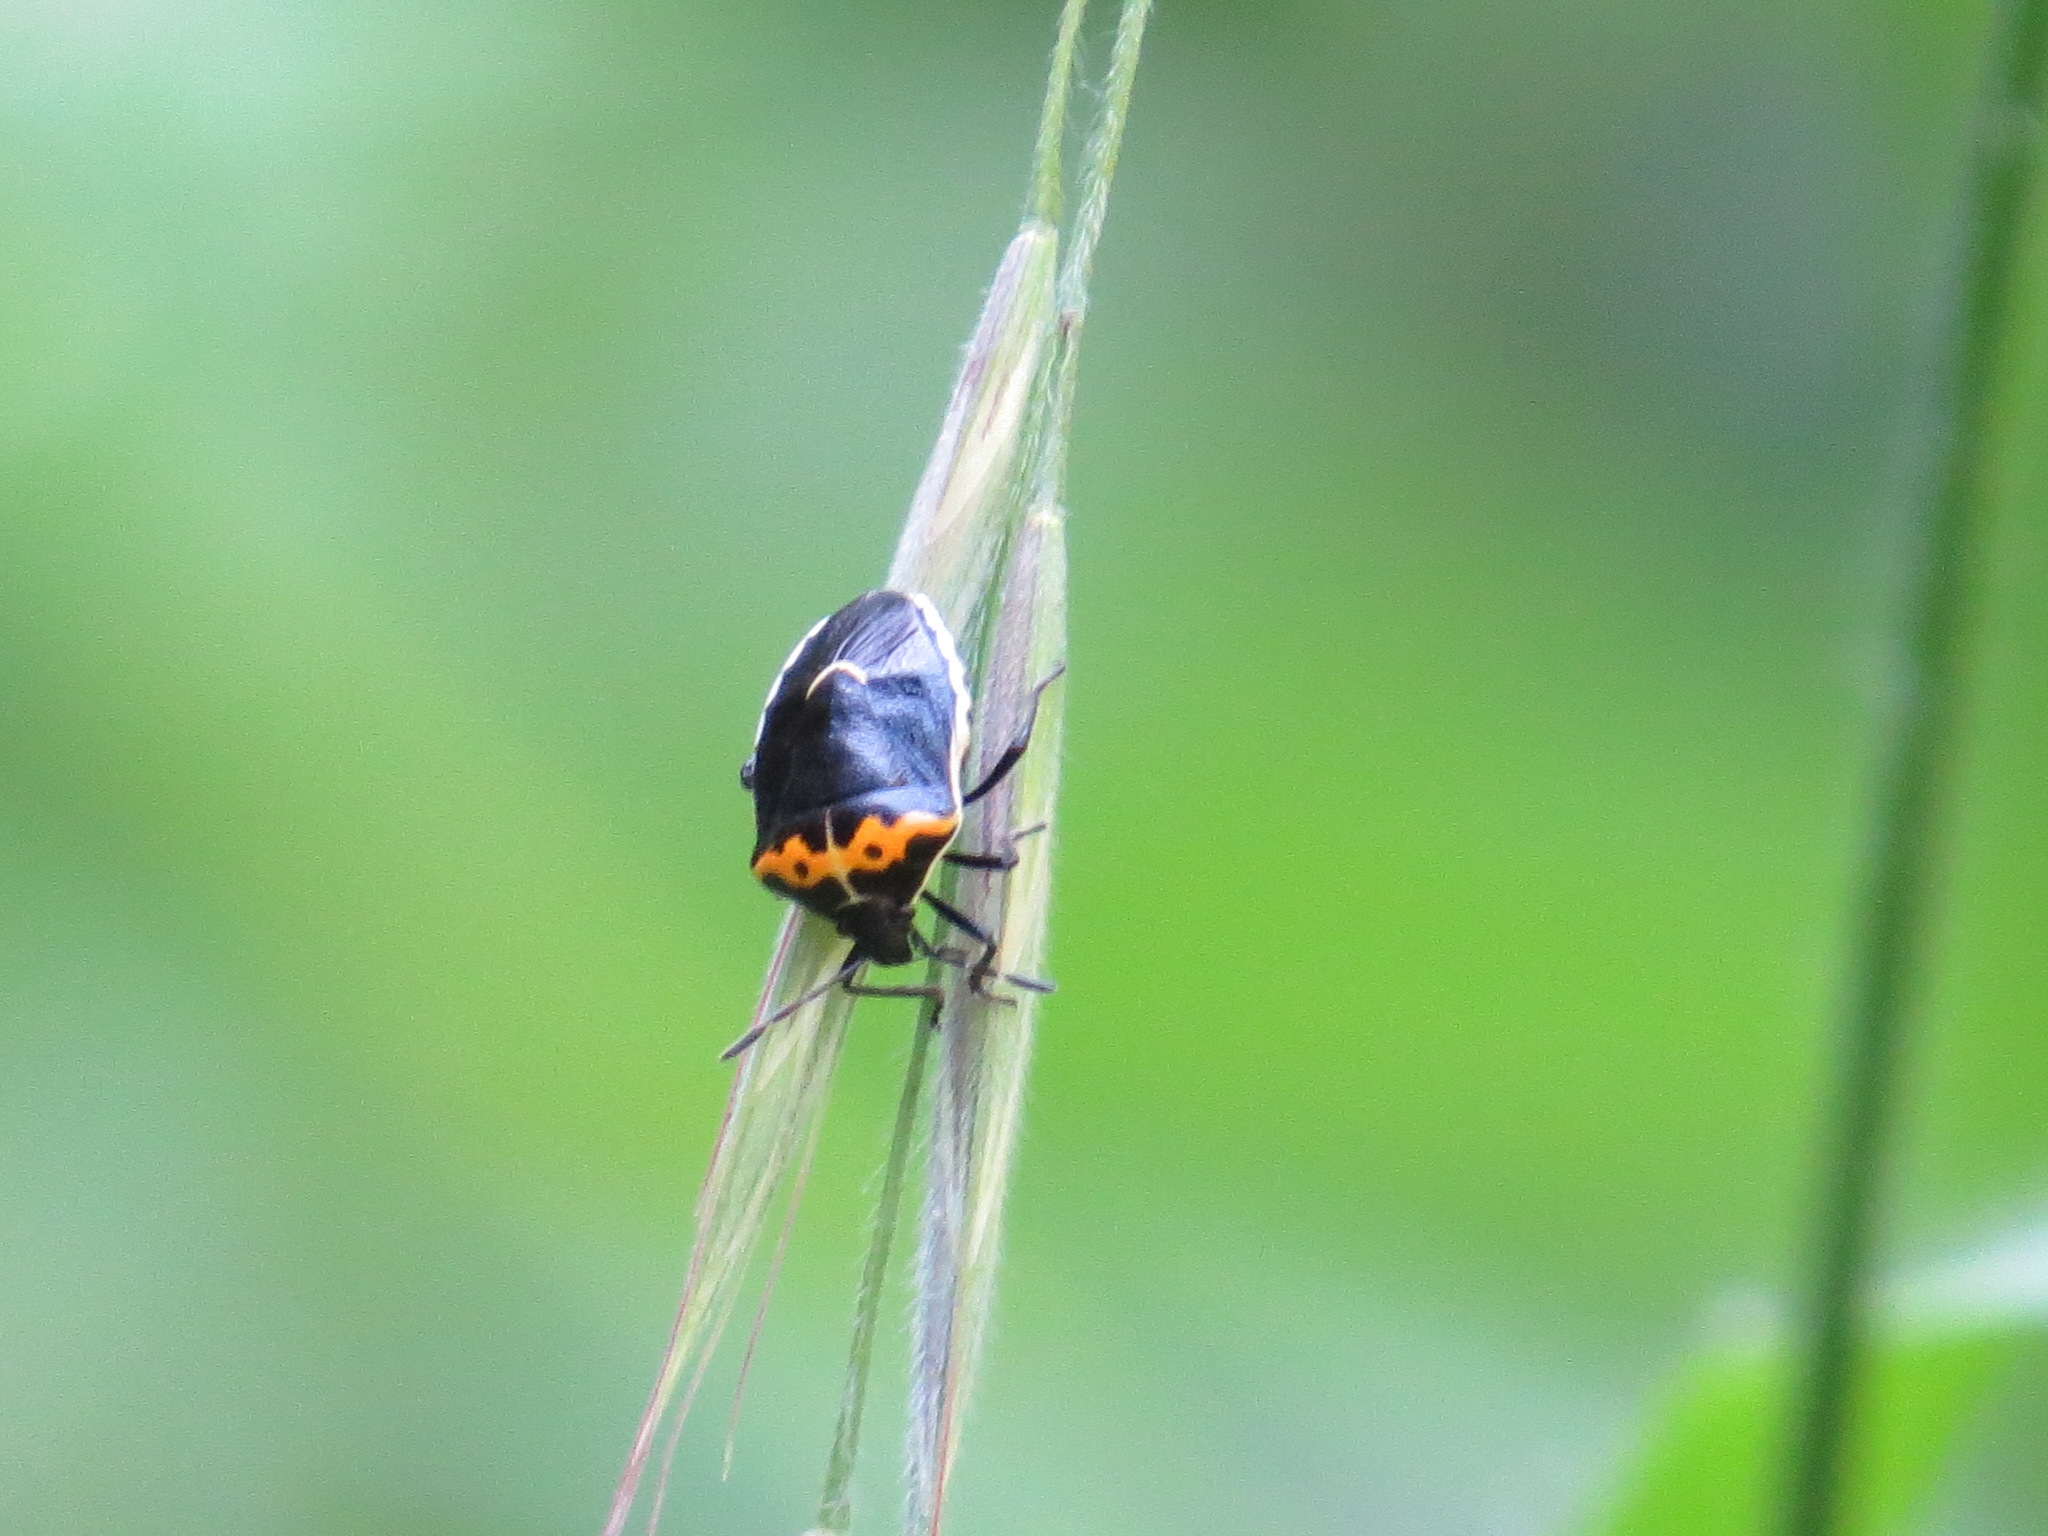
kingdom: Animalia
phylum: Arthropoda
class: Insecta
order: Hemiptera
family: Pentatomidae
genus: Cosmopepla
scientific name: Cosmopepla conspicillaris
